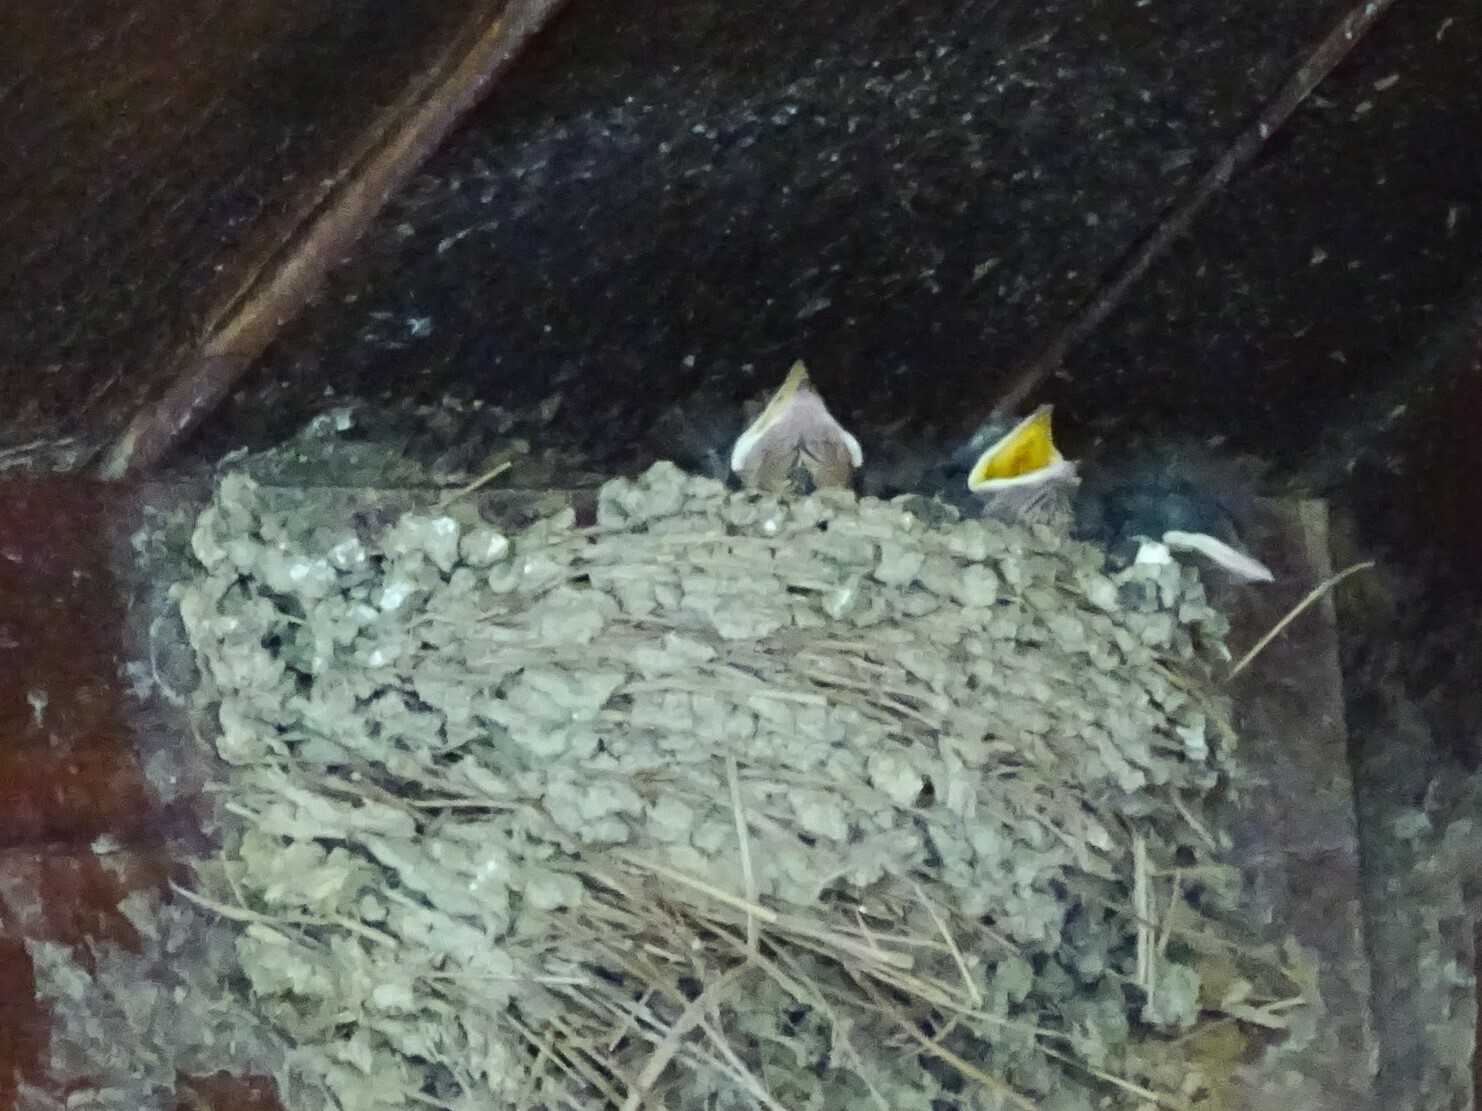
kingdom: Animalia
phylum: Chordata
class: Aves
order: Passeriformes
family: Hirundinidae
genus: Hirundo
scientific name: Hirundo rustica
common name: Barn swallow
